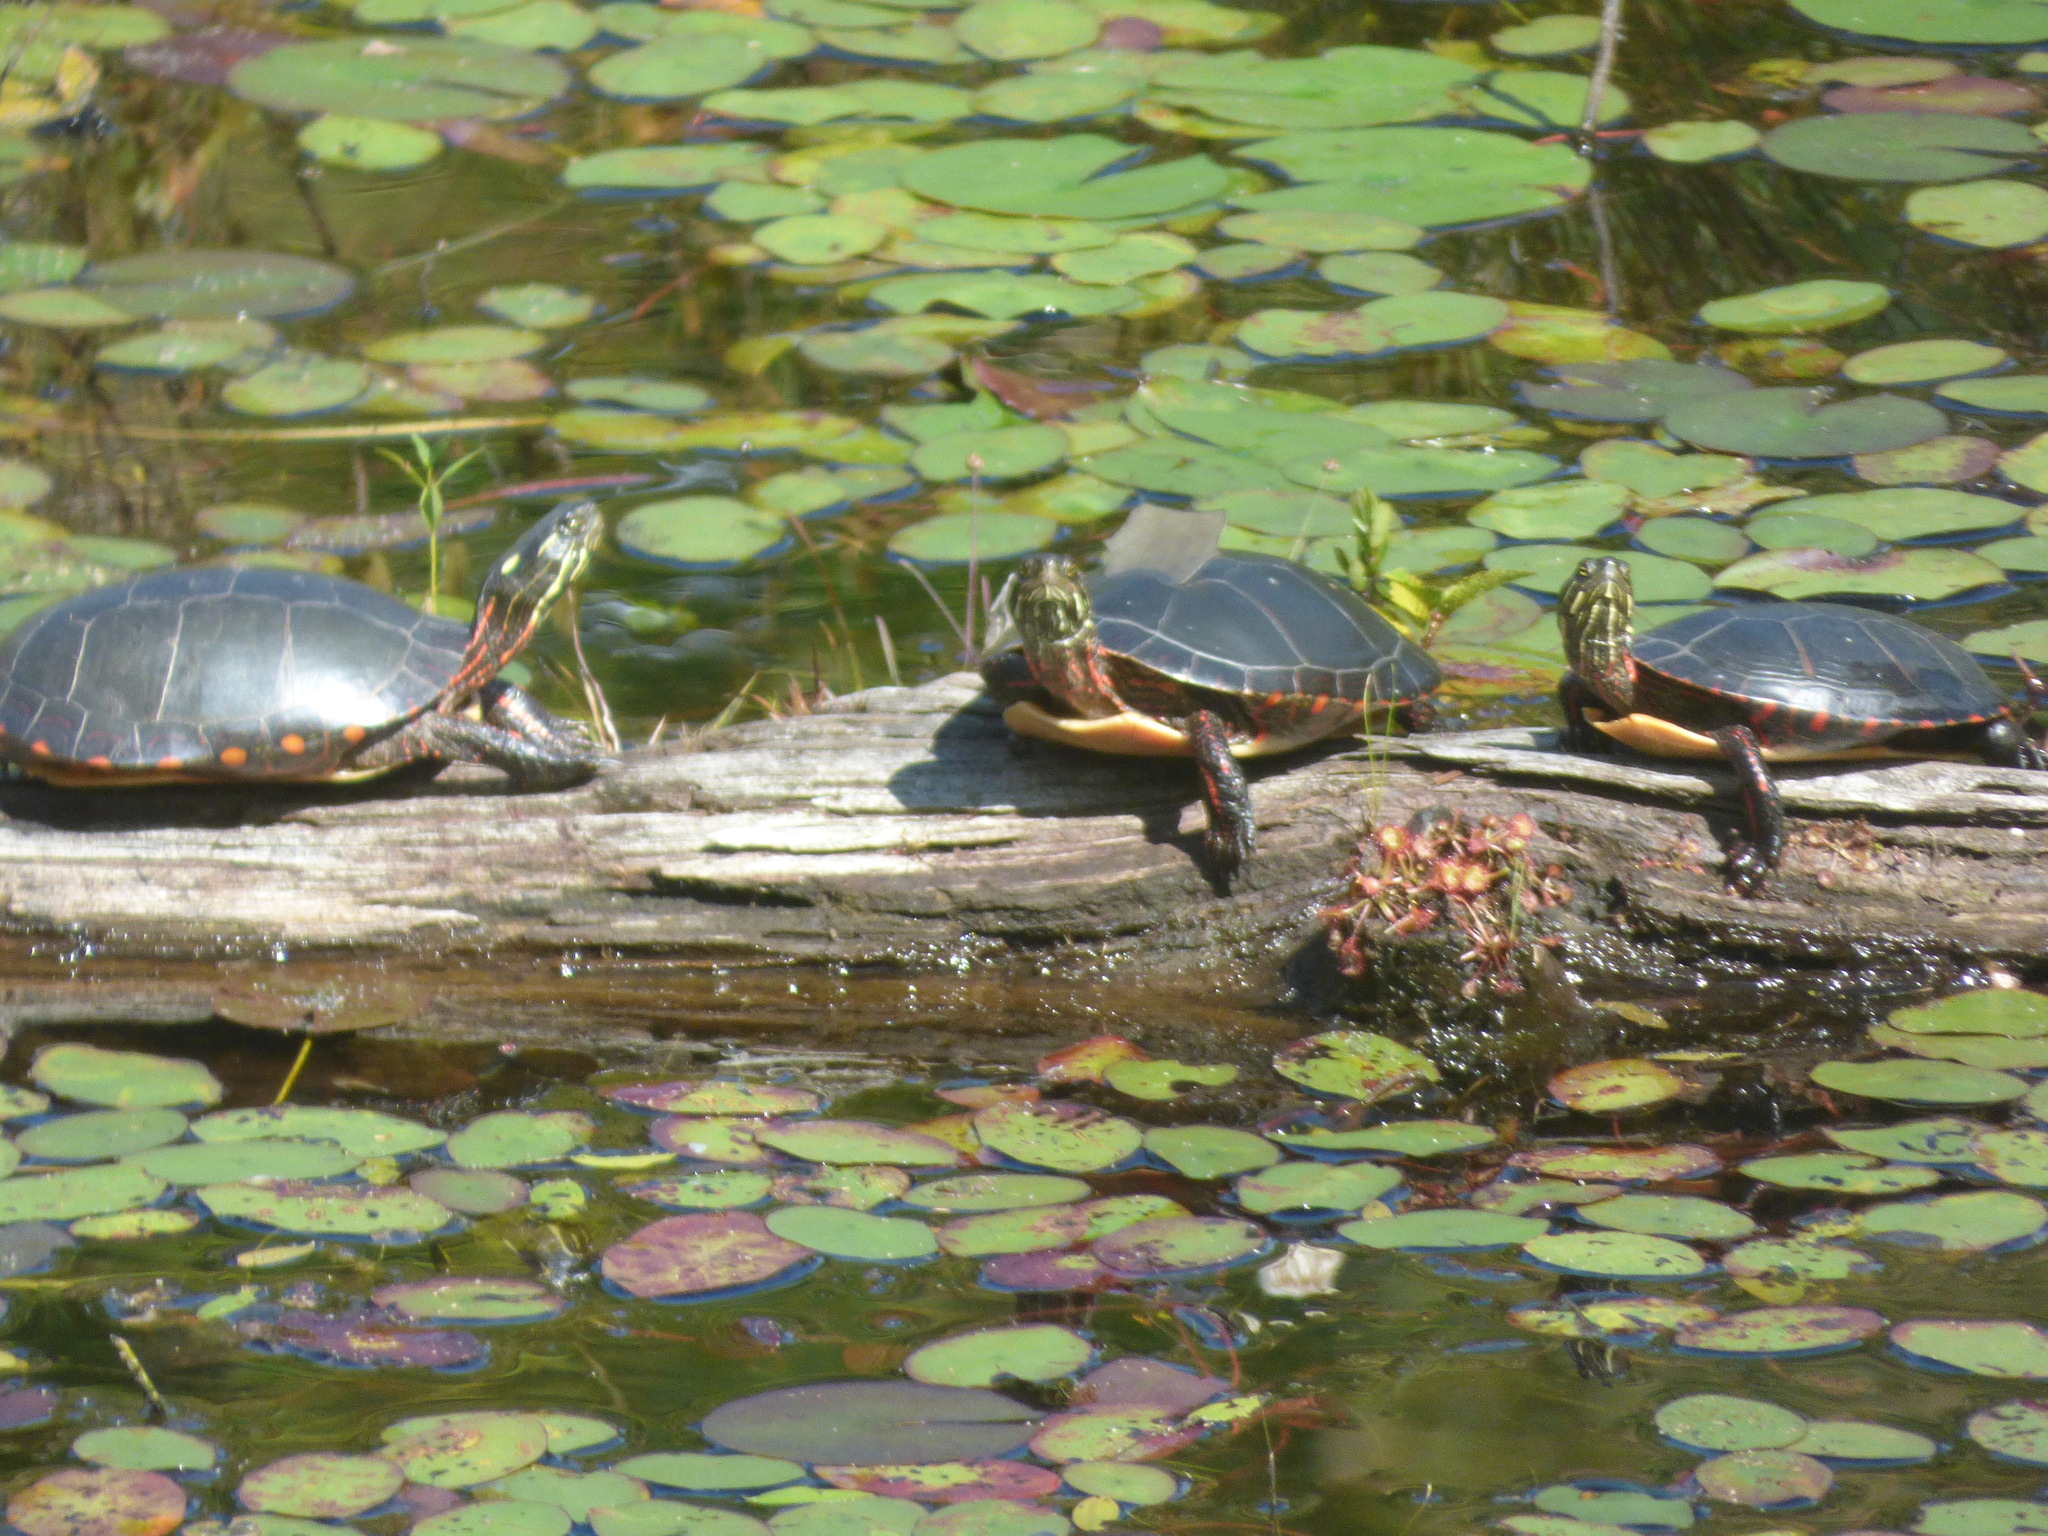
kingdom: Animalia
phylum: Chordata
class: Testudines
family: Emydidae
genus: Chrysemys
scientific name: Chrysemys picta
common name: Painted turtle
